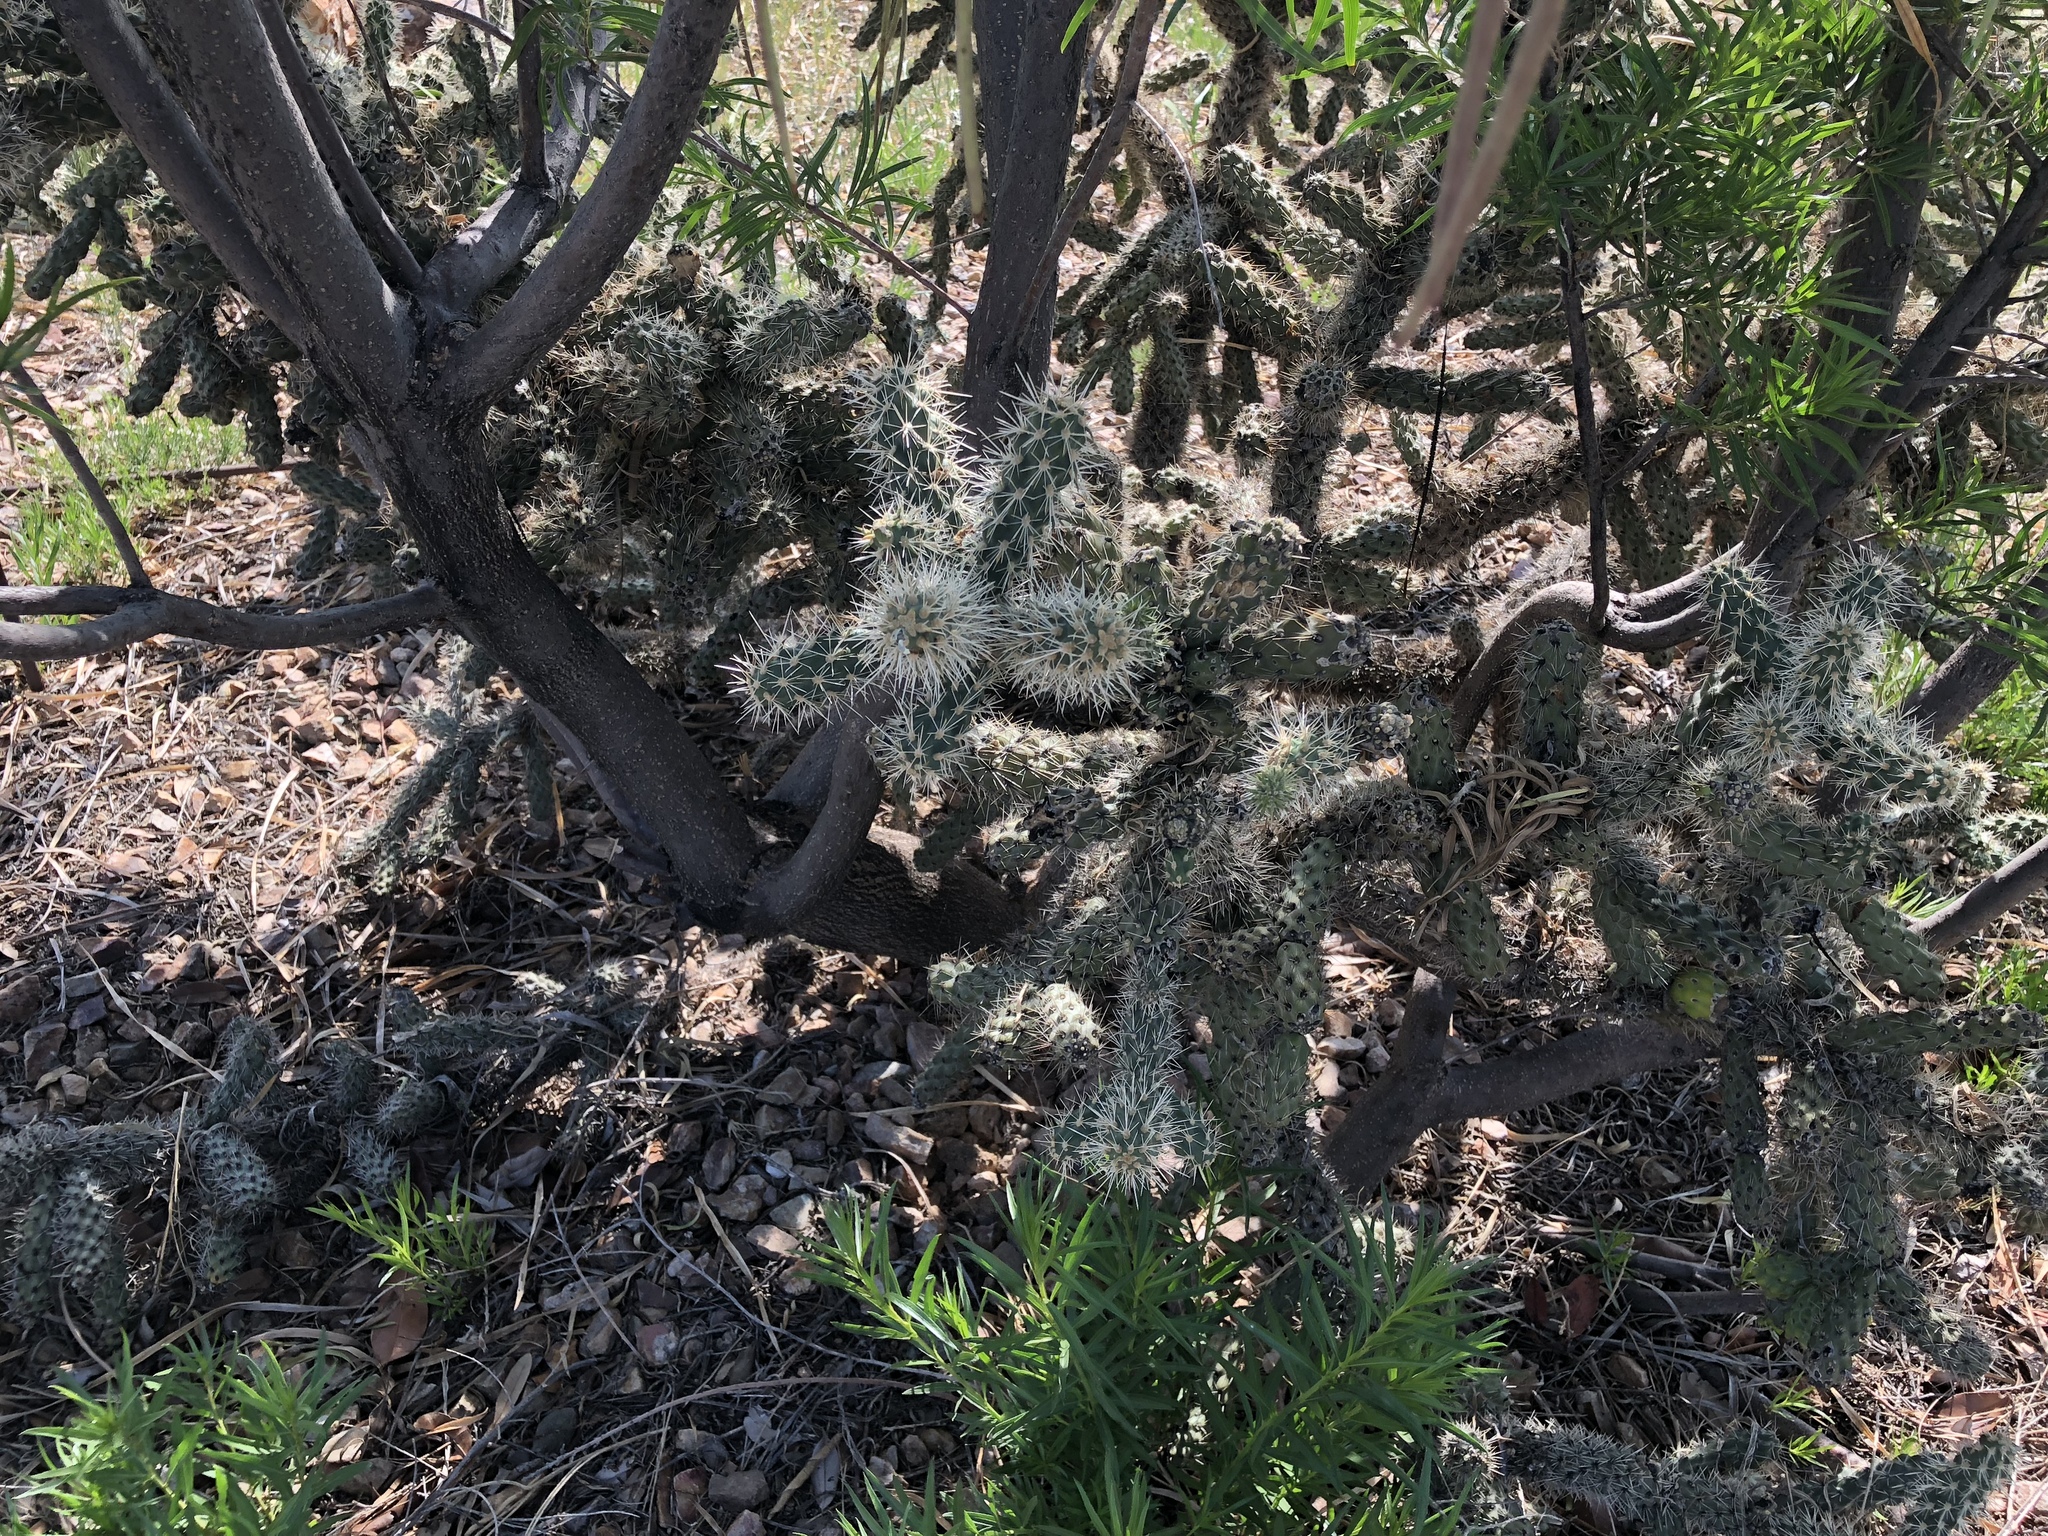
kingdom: Plantae
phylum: Tracheophyta
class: Magnoliopsida
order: Caryophyllales
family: Cactaceae
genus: Cylindropuntia
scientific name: Cylindropuntia imbricata
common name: Candelabrum cactus
